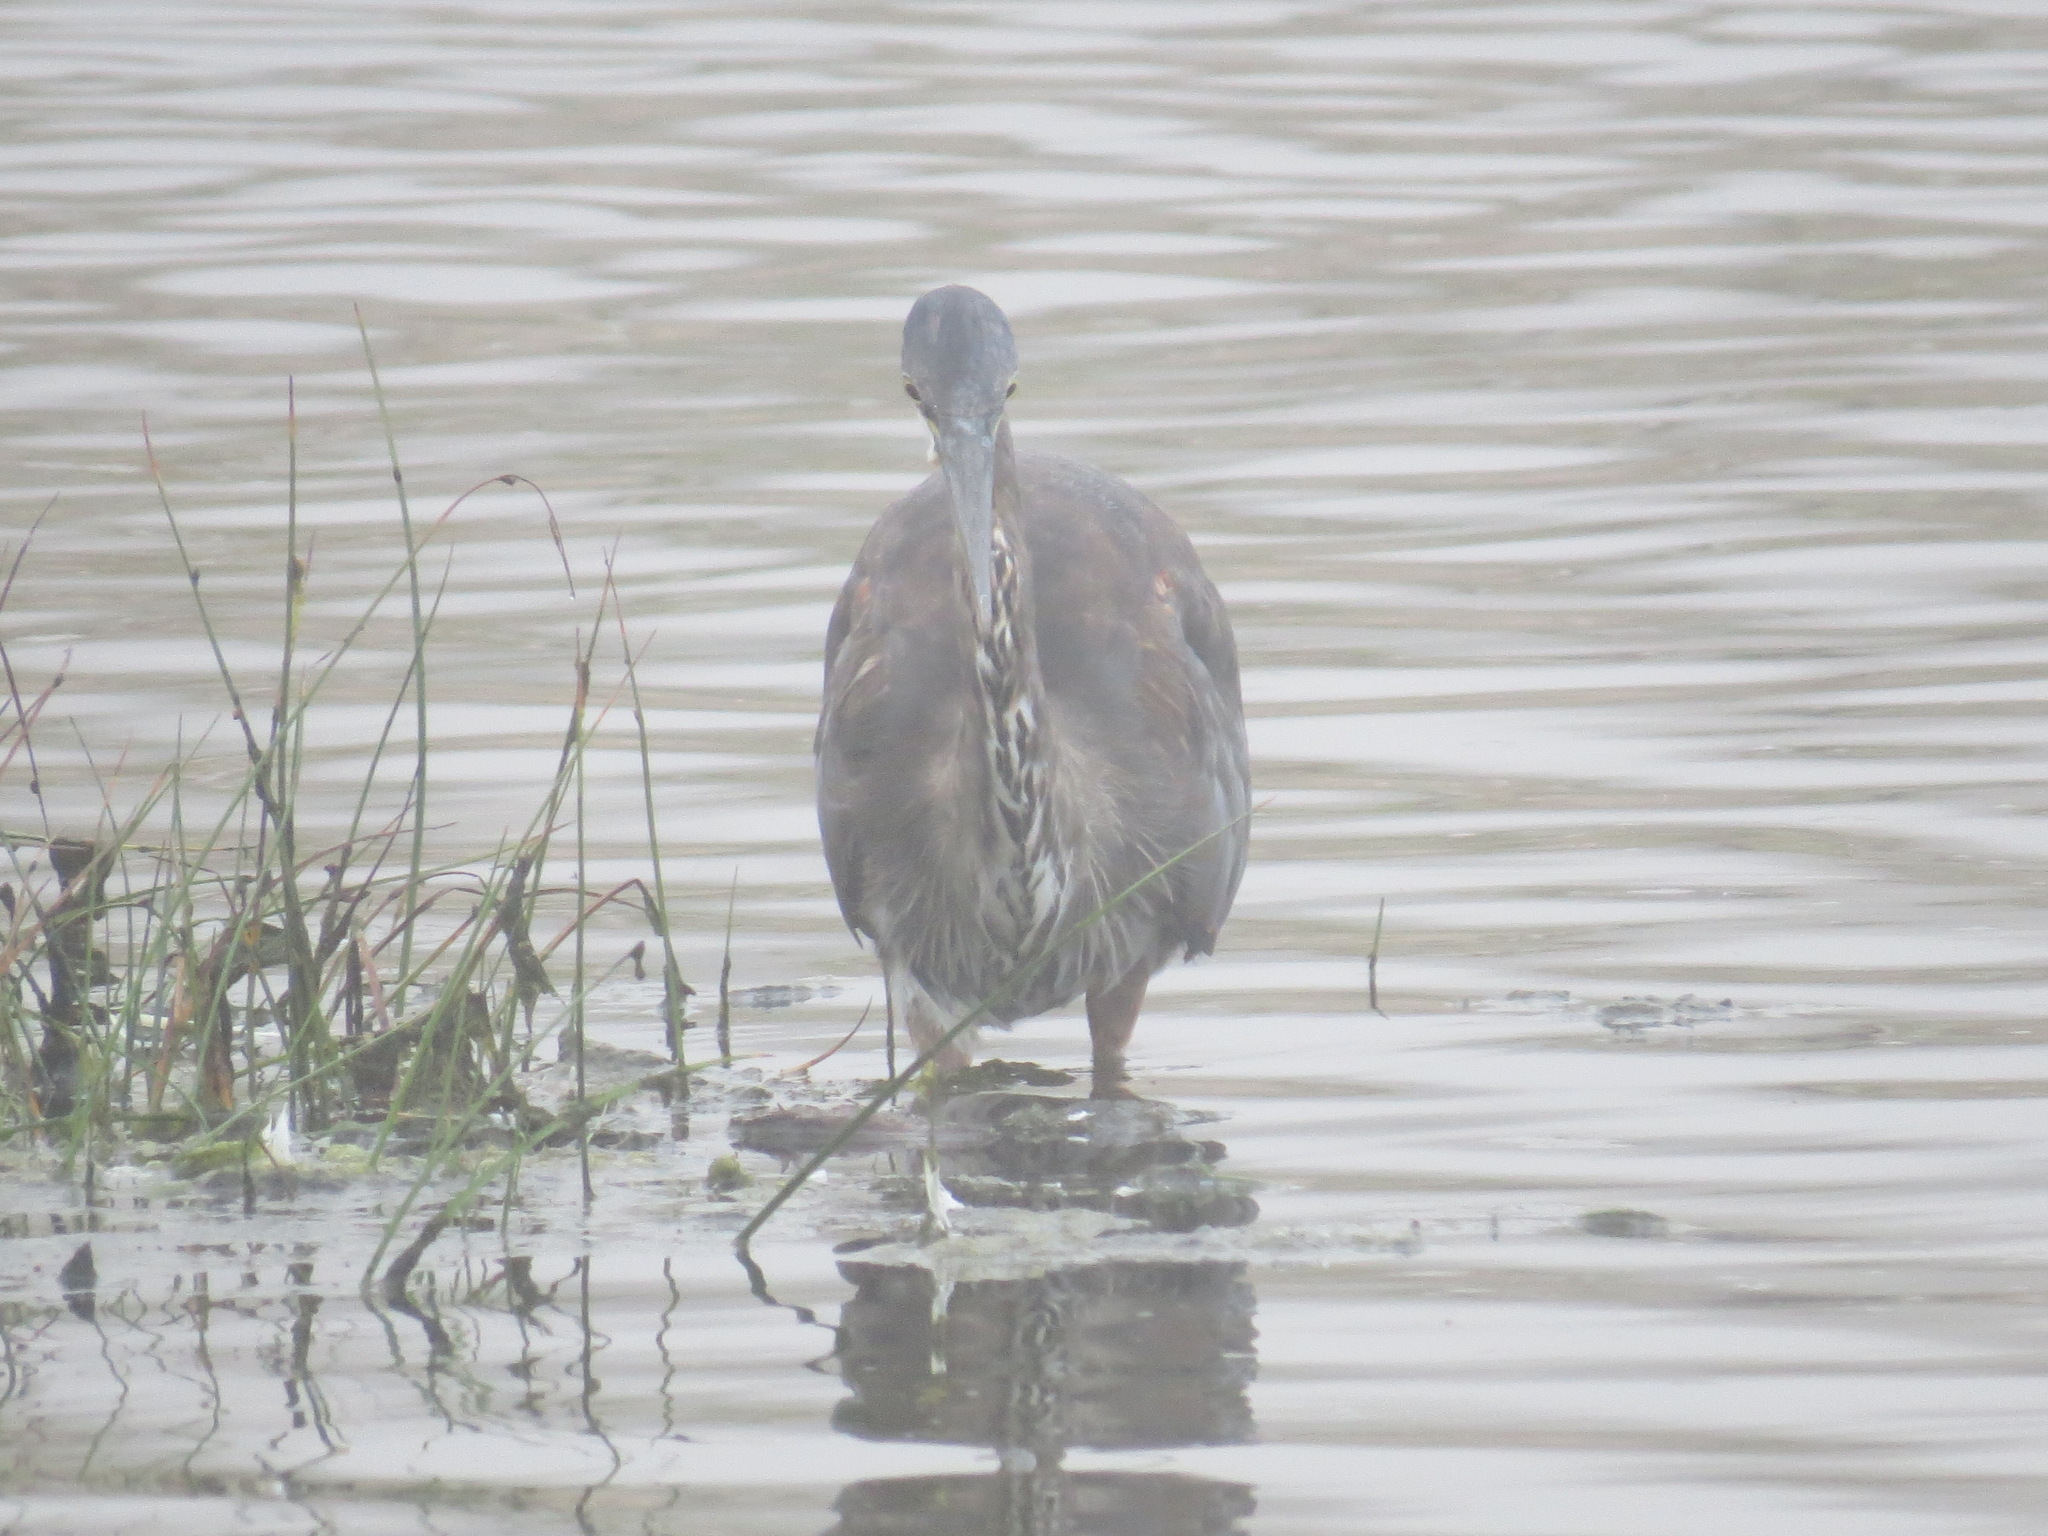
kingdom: Animalia
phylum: Chordata
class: Aves
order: Pelecaniformes
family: Ardeidae
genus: Ardea
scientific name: Ardea herodias
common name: Great blue heron
